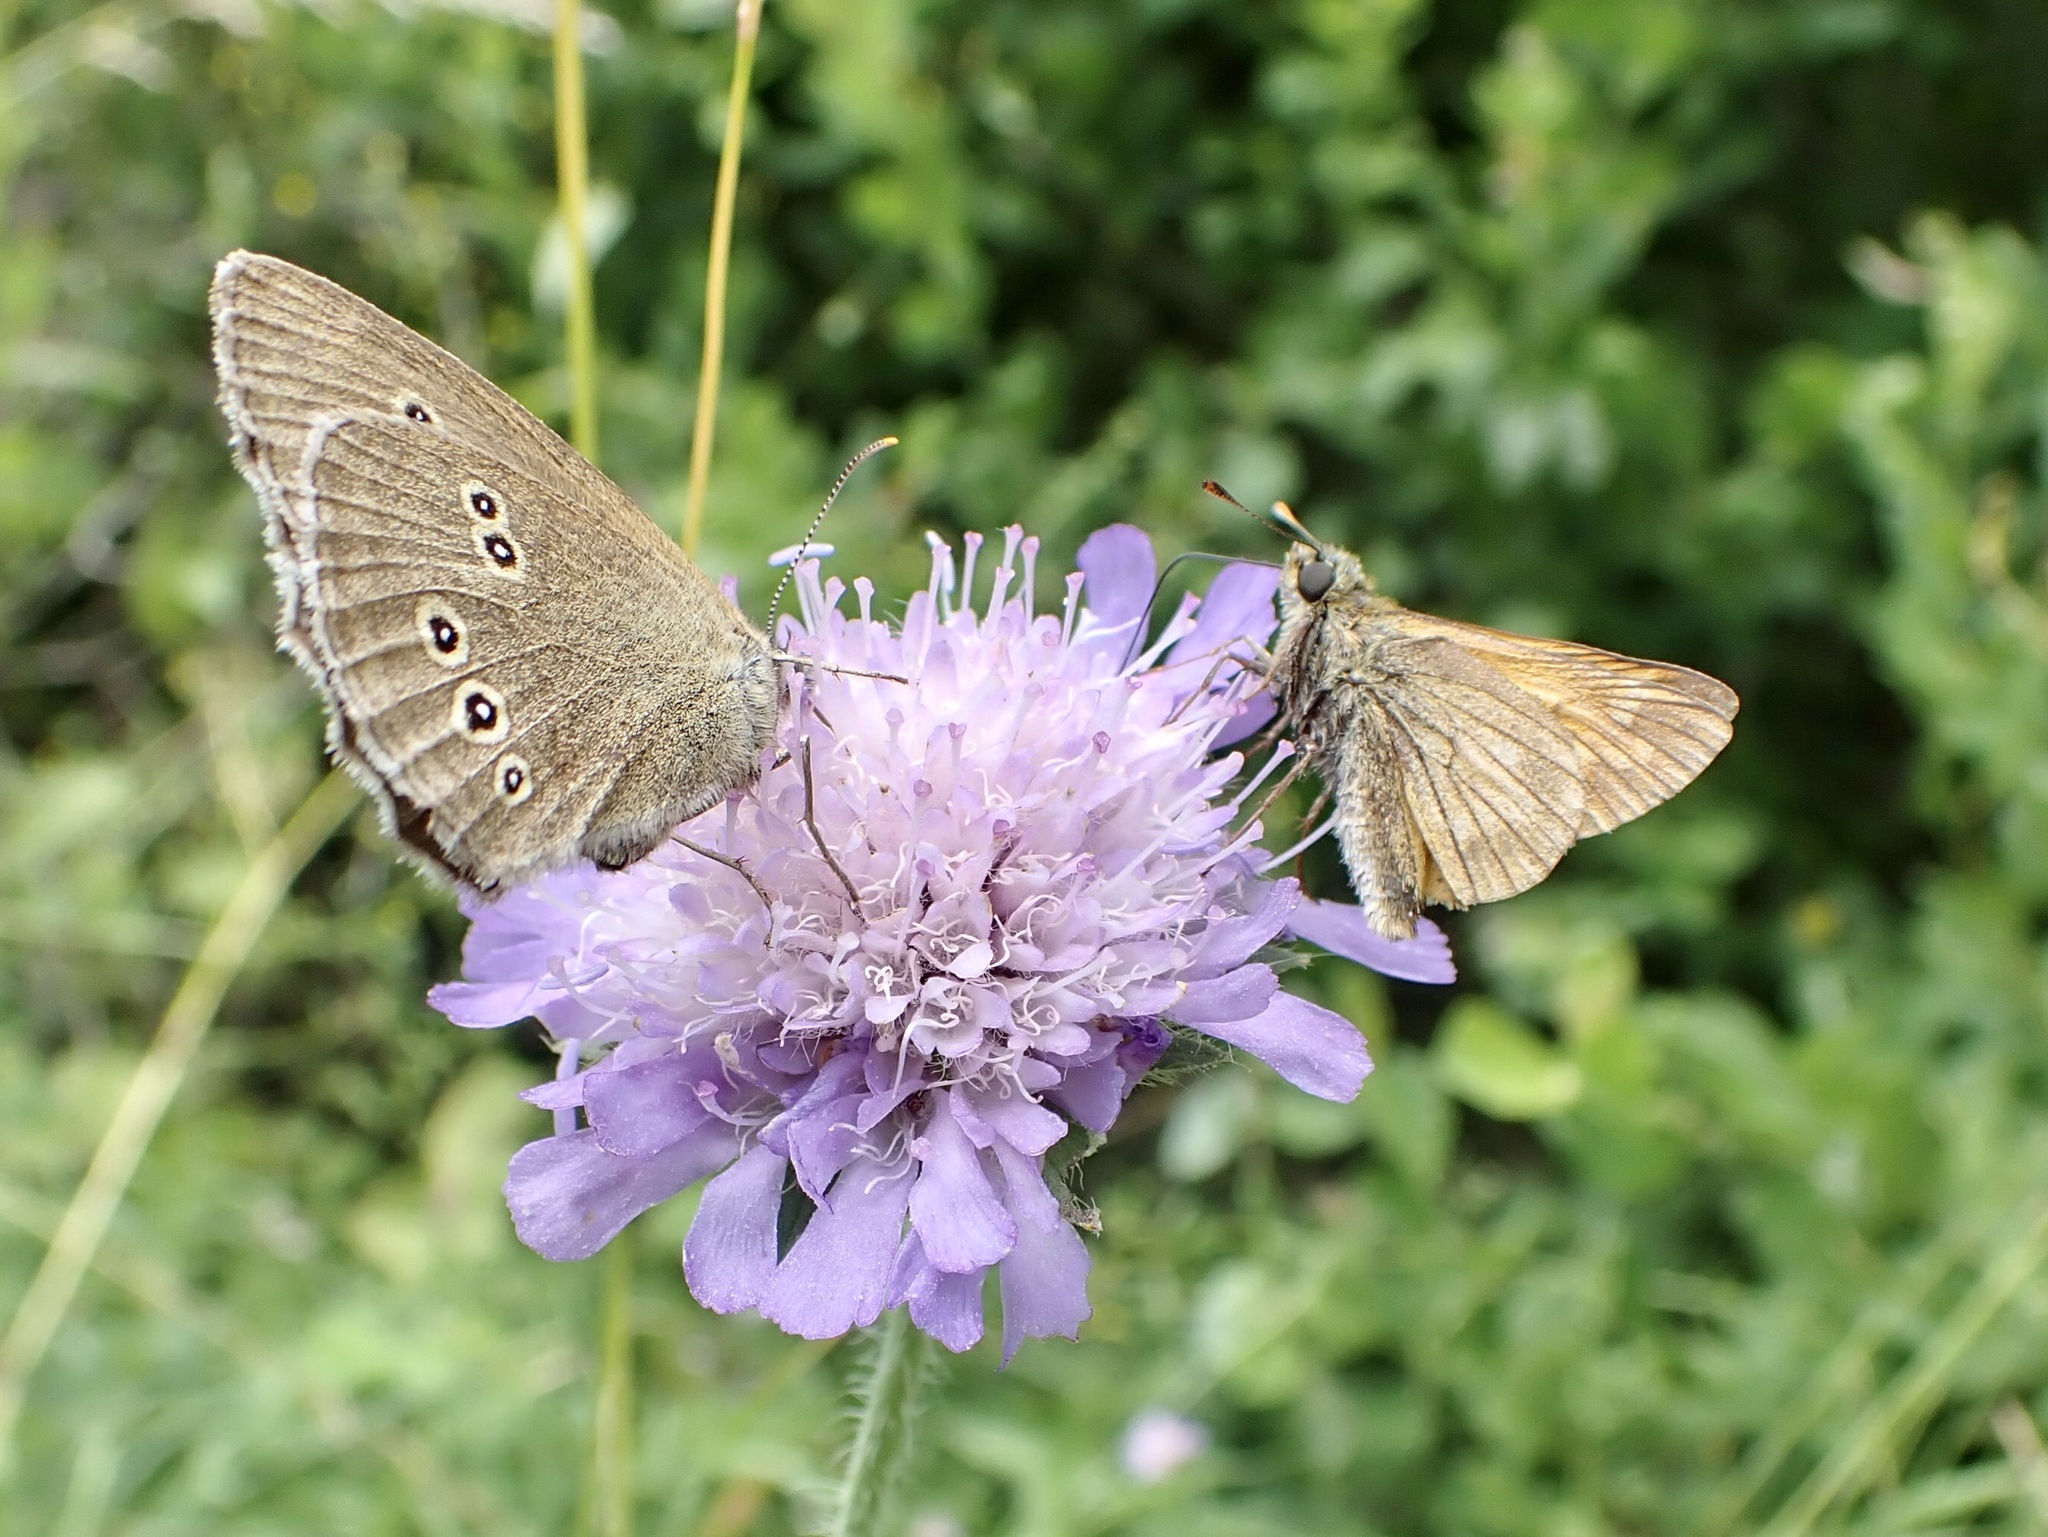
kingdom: Animalia
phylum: Arthropoda
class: Insecta
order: Lepidoptera
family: Nymphalidae
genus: Aphantopus
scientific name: Aphantopus hyperantus
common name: Ringlet
